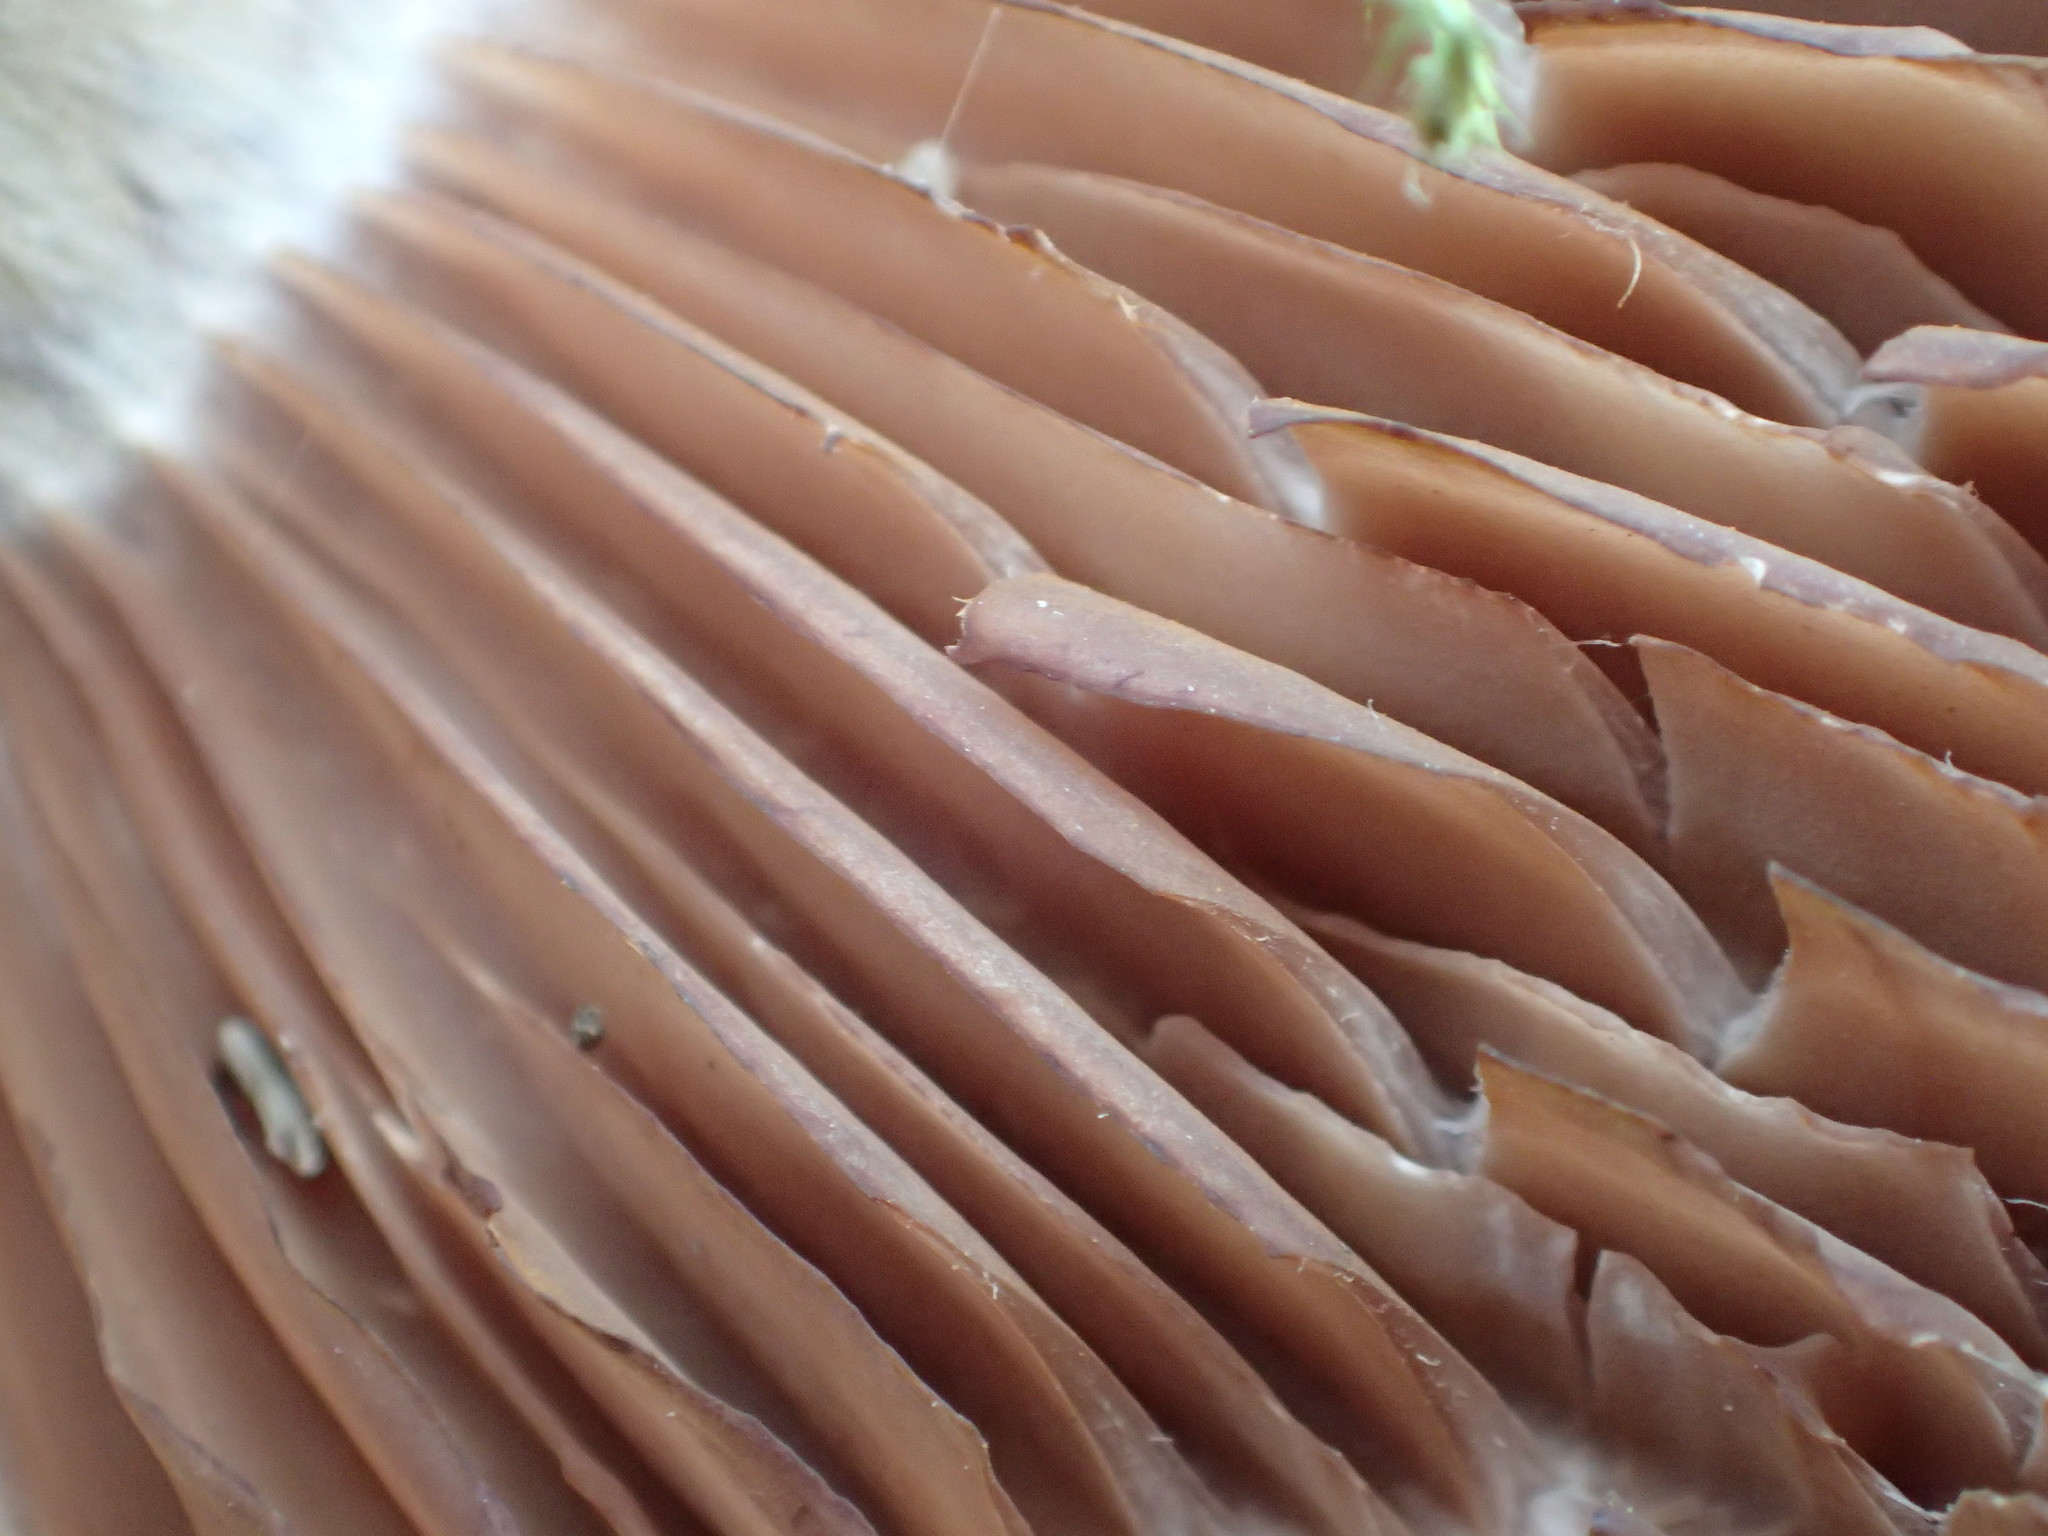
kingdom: Fungi
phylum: Basidiomycota
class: Agaricomycetes
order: Agaricales
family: Cortinariaceae
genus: Cortinarius
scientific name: Cortinarius lucorum
